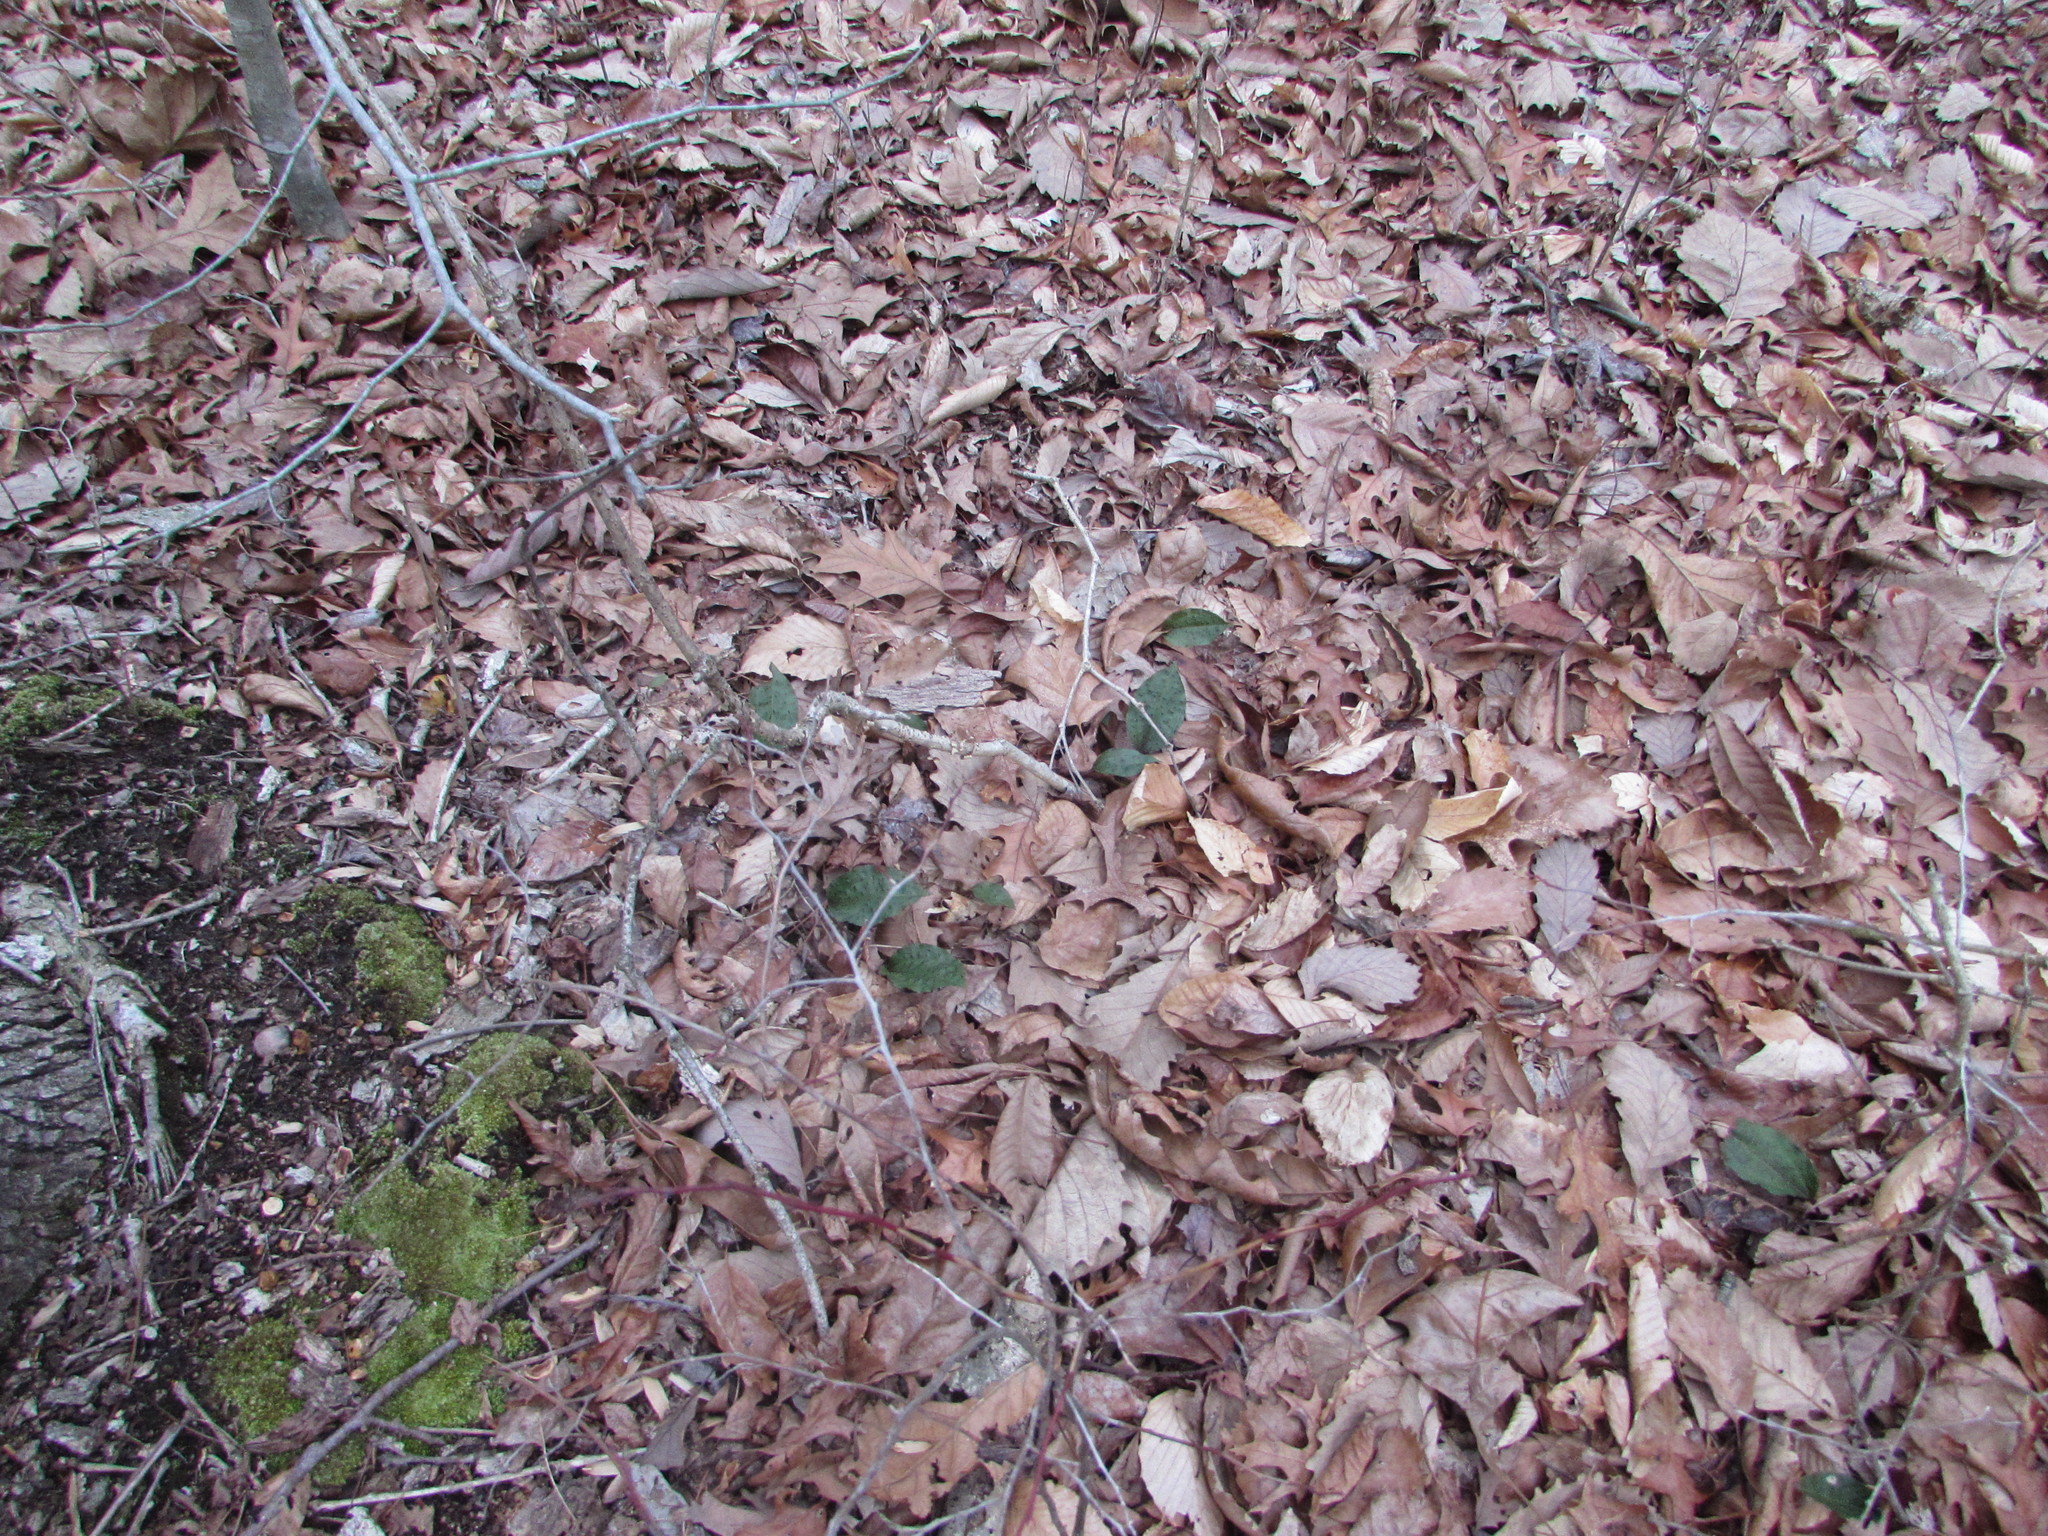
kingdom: Plantae
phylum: Tracheophyta
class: Liliopsida
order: Asparagales
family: Orchidaceae
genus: Tipularia
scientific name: Tipularia discolor
